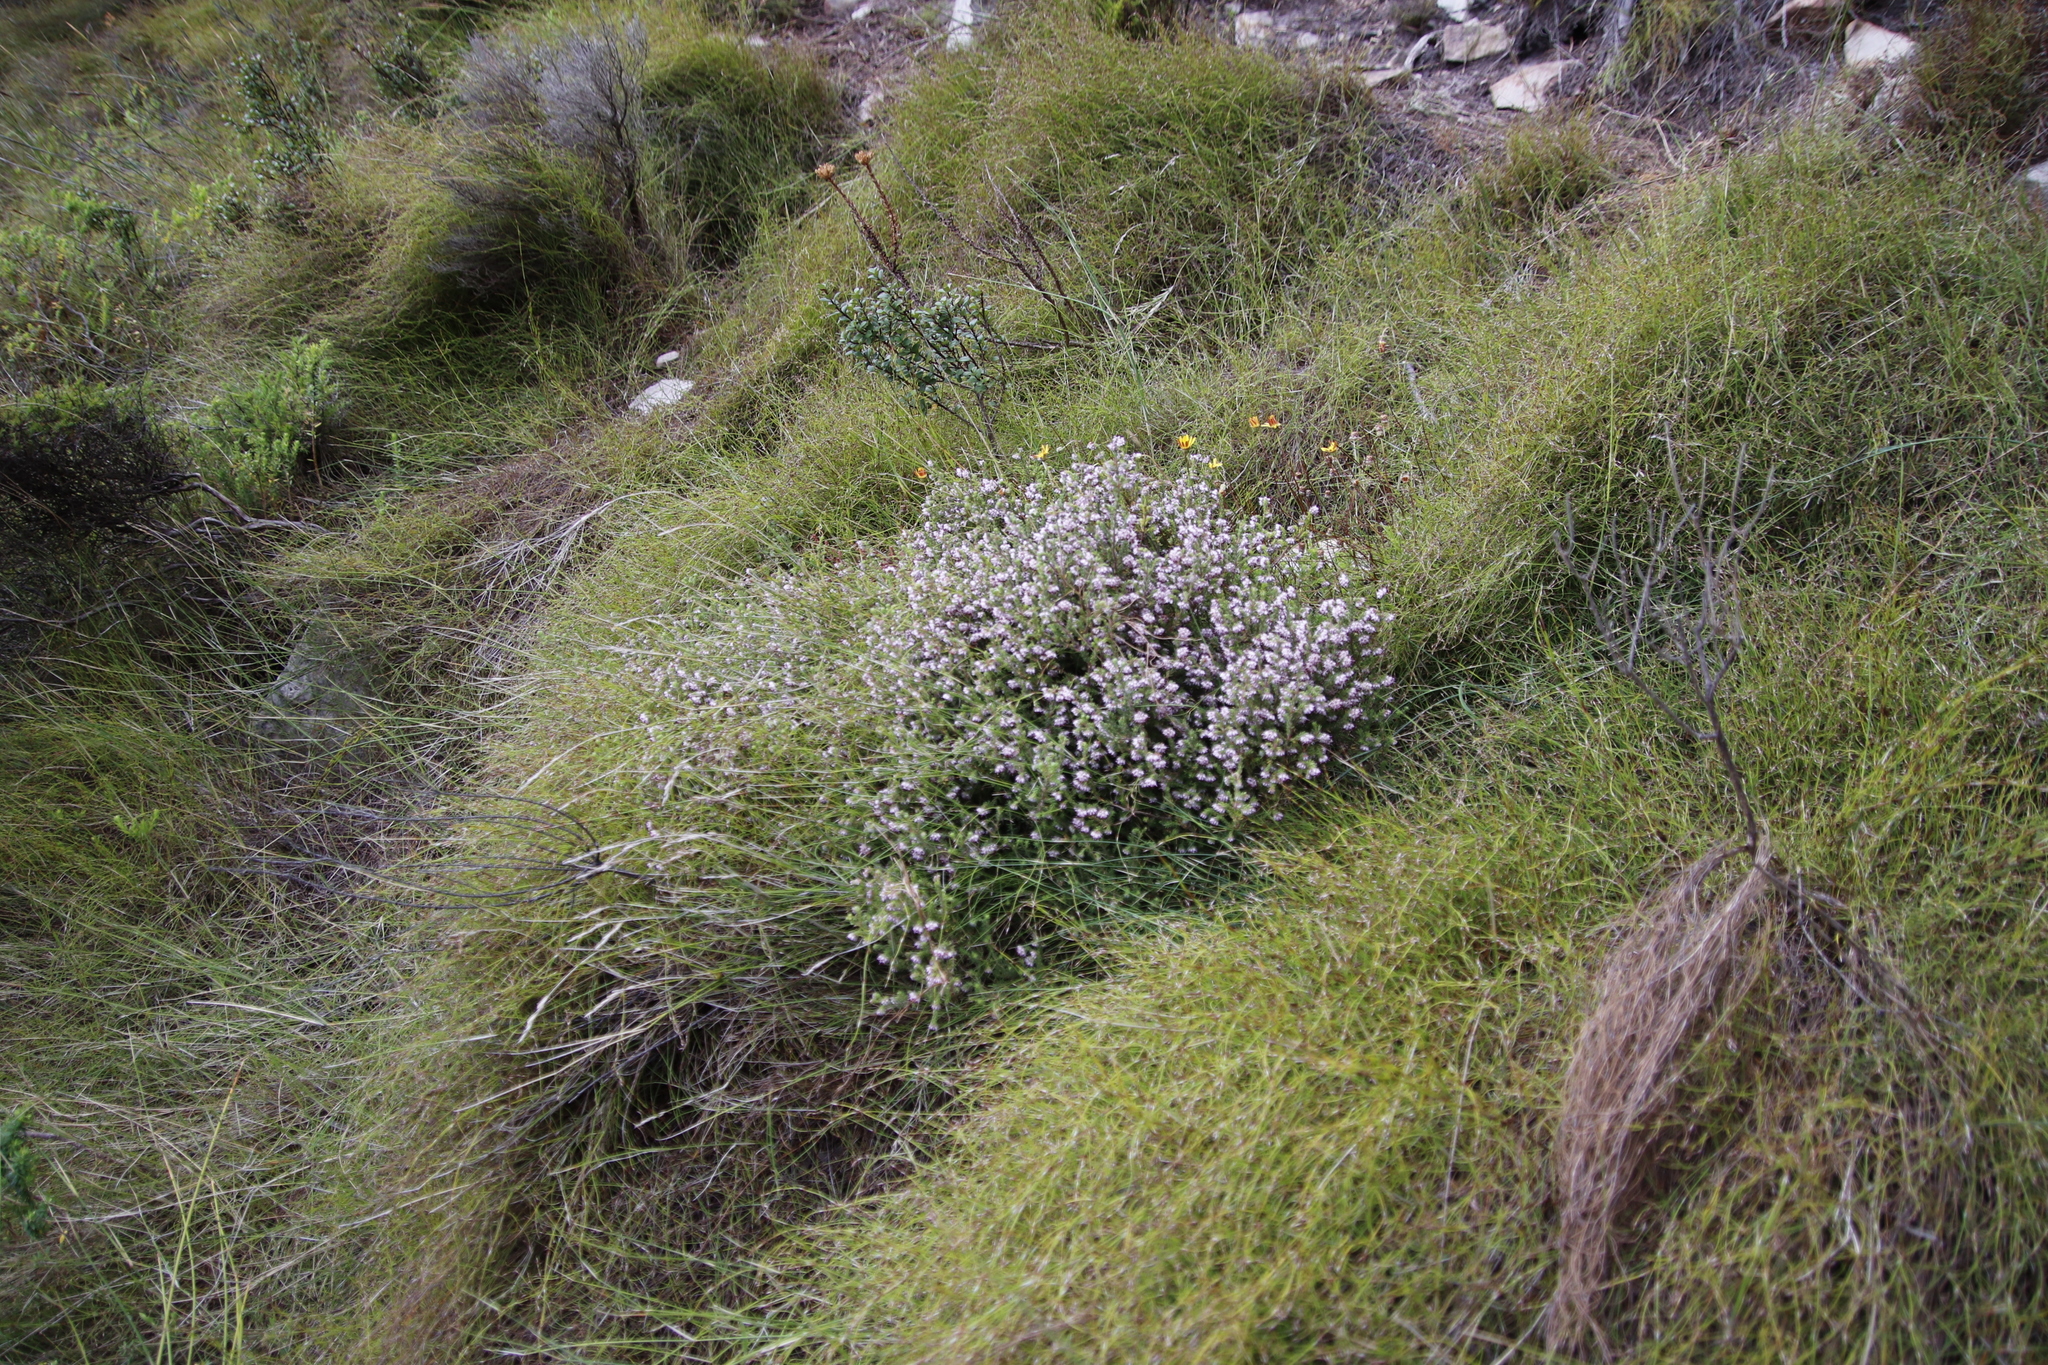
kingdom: Plantae
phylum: Tracheophyta
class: Magnoliopsida
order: Ericales
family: Ericaceae
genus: Erica
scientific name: Erica ericoides
